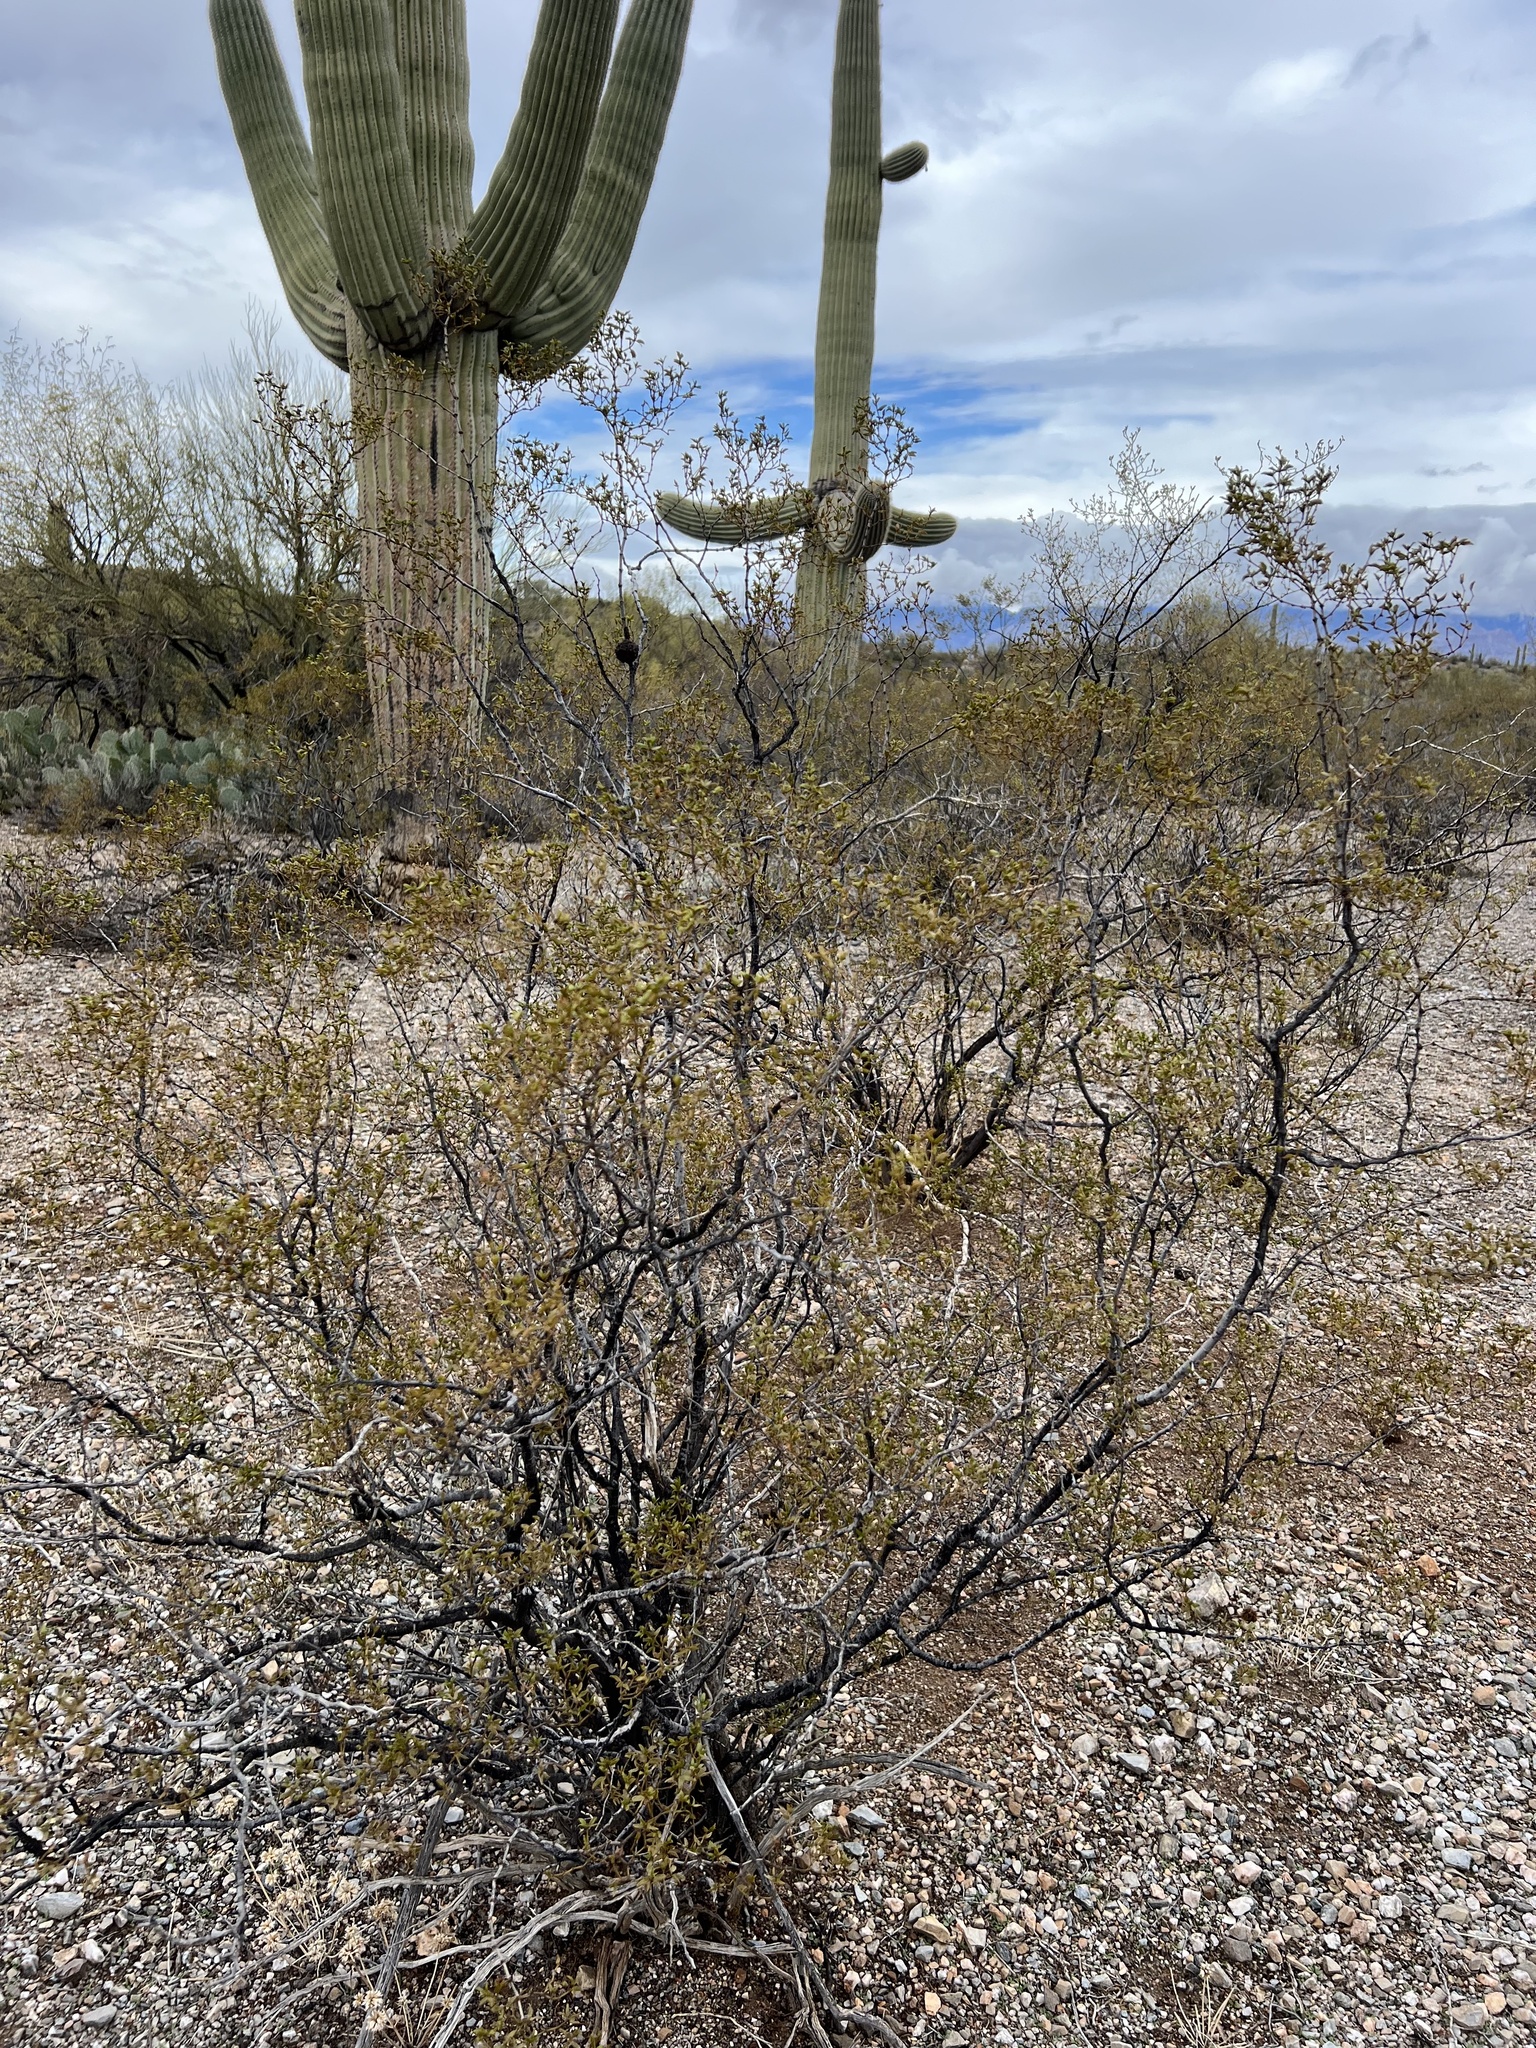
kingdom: Plantae
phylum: Tracheophyta
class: Magnoliopsida
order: Zygophyllales
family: Zygophyllaceae
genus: Larrea
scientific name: Larrea tridentata
